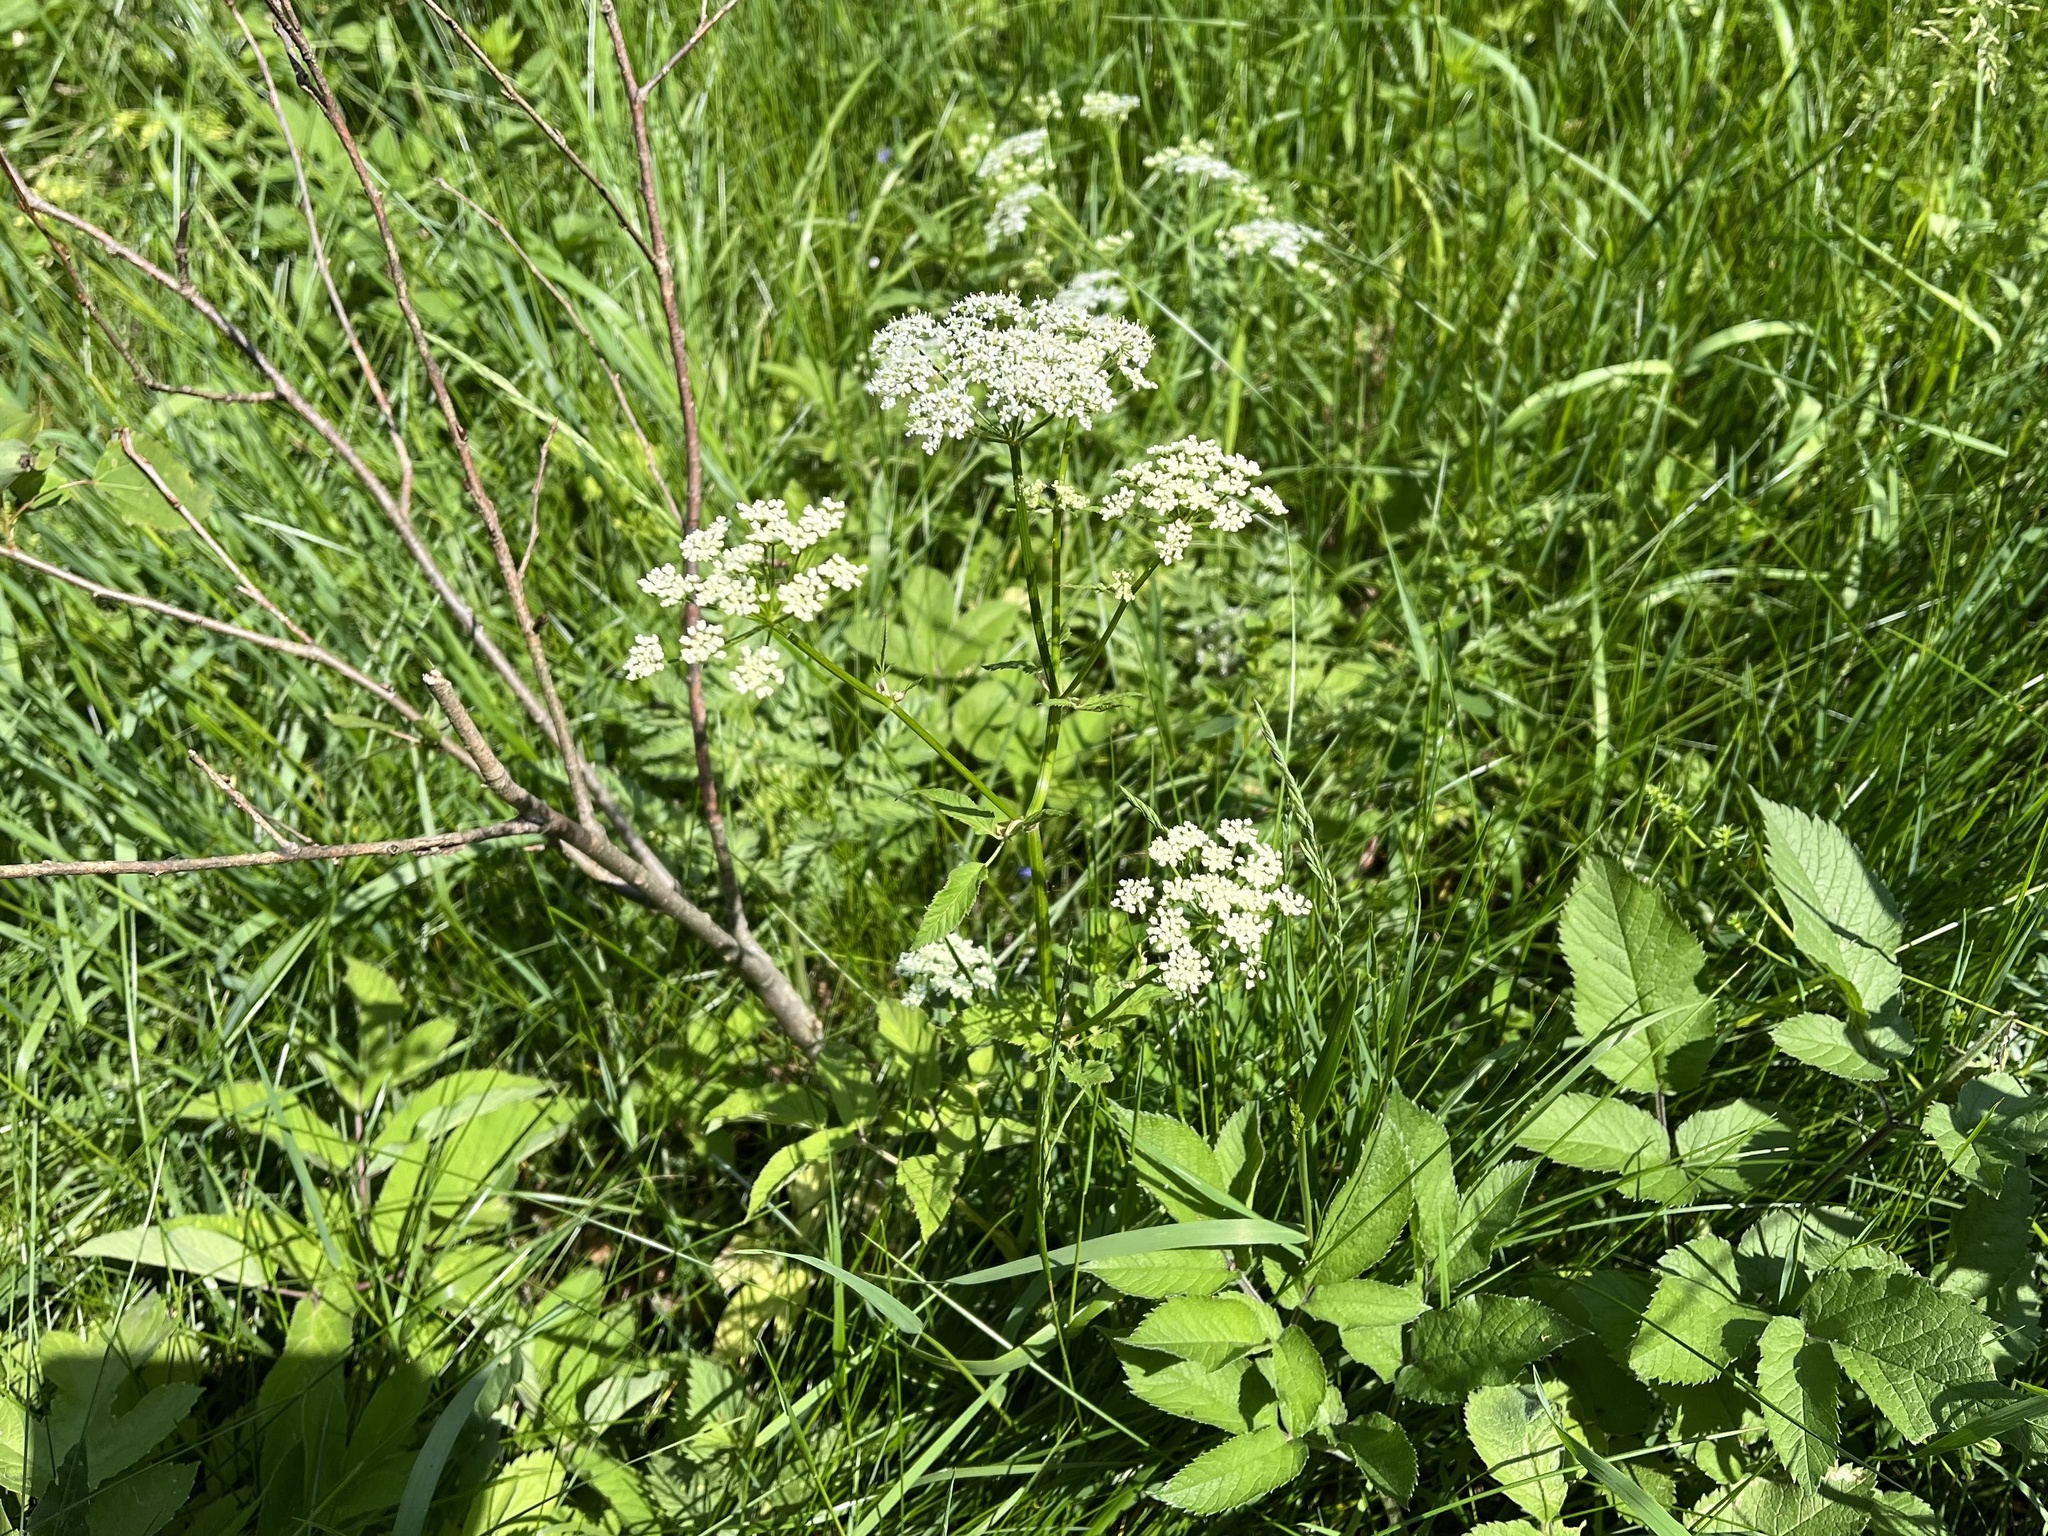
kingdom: Plantae
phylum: Tracheophyta
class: Magnoliopsida
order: Apiales
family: Apiaceae
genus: Aegopodium
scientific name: Aegopodium podagraria
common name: Ground-elder
